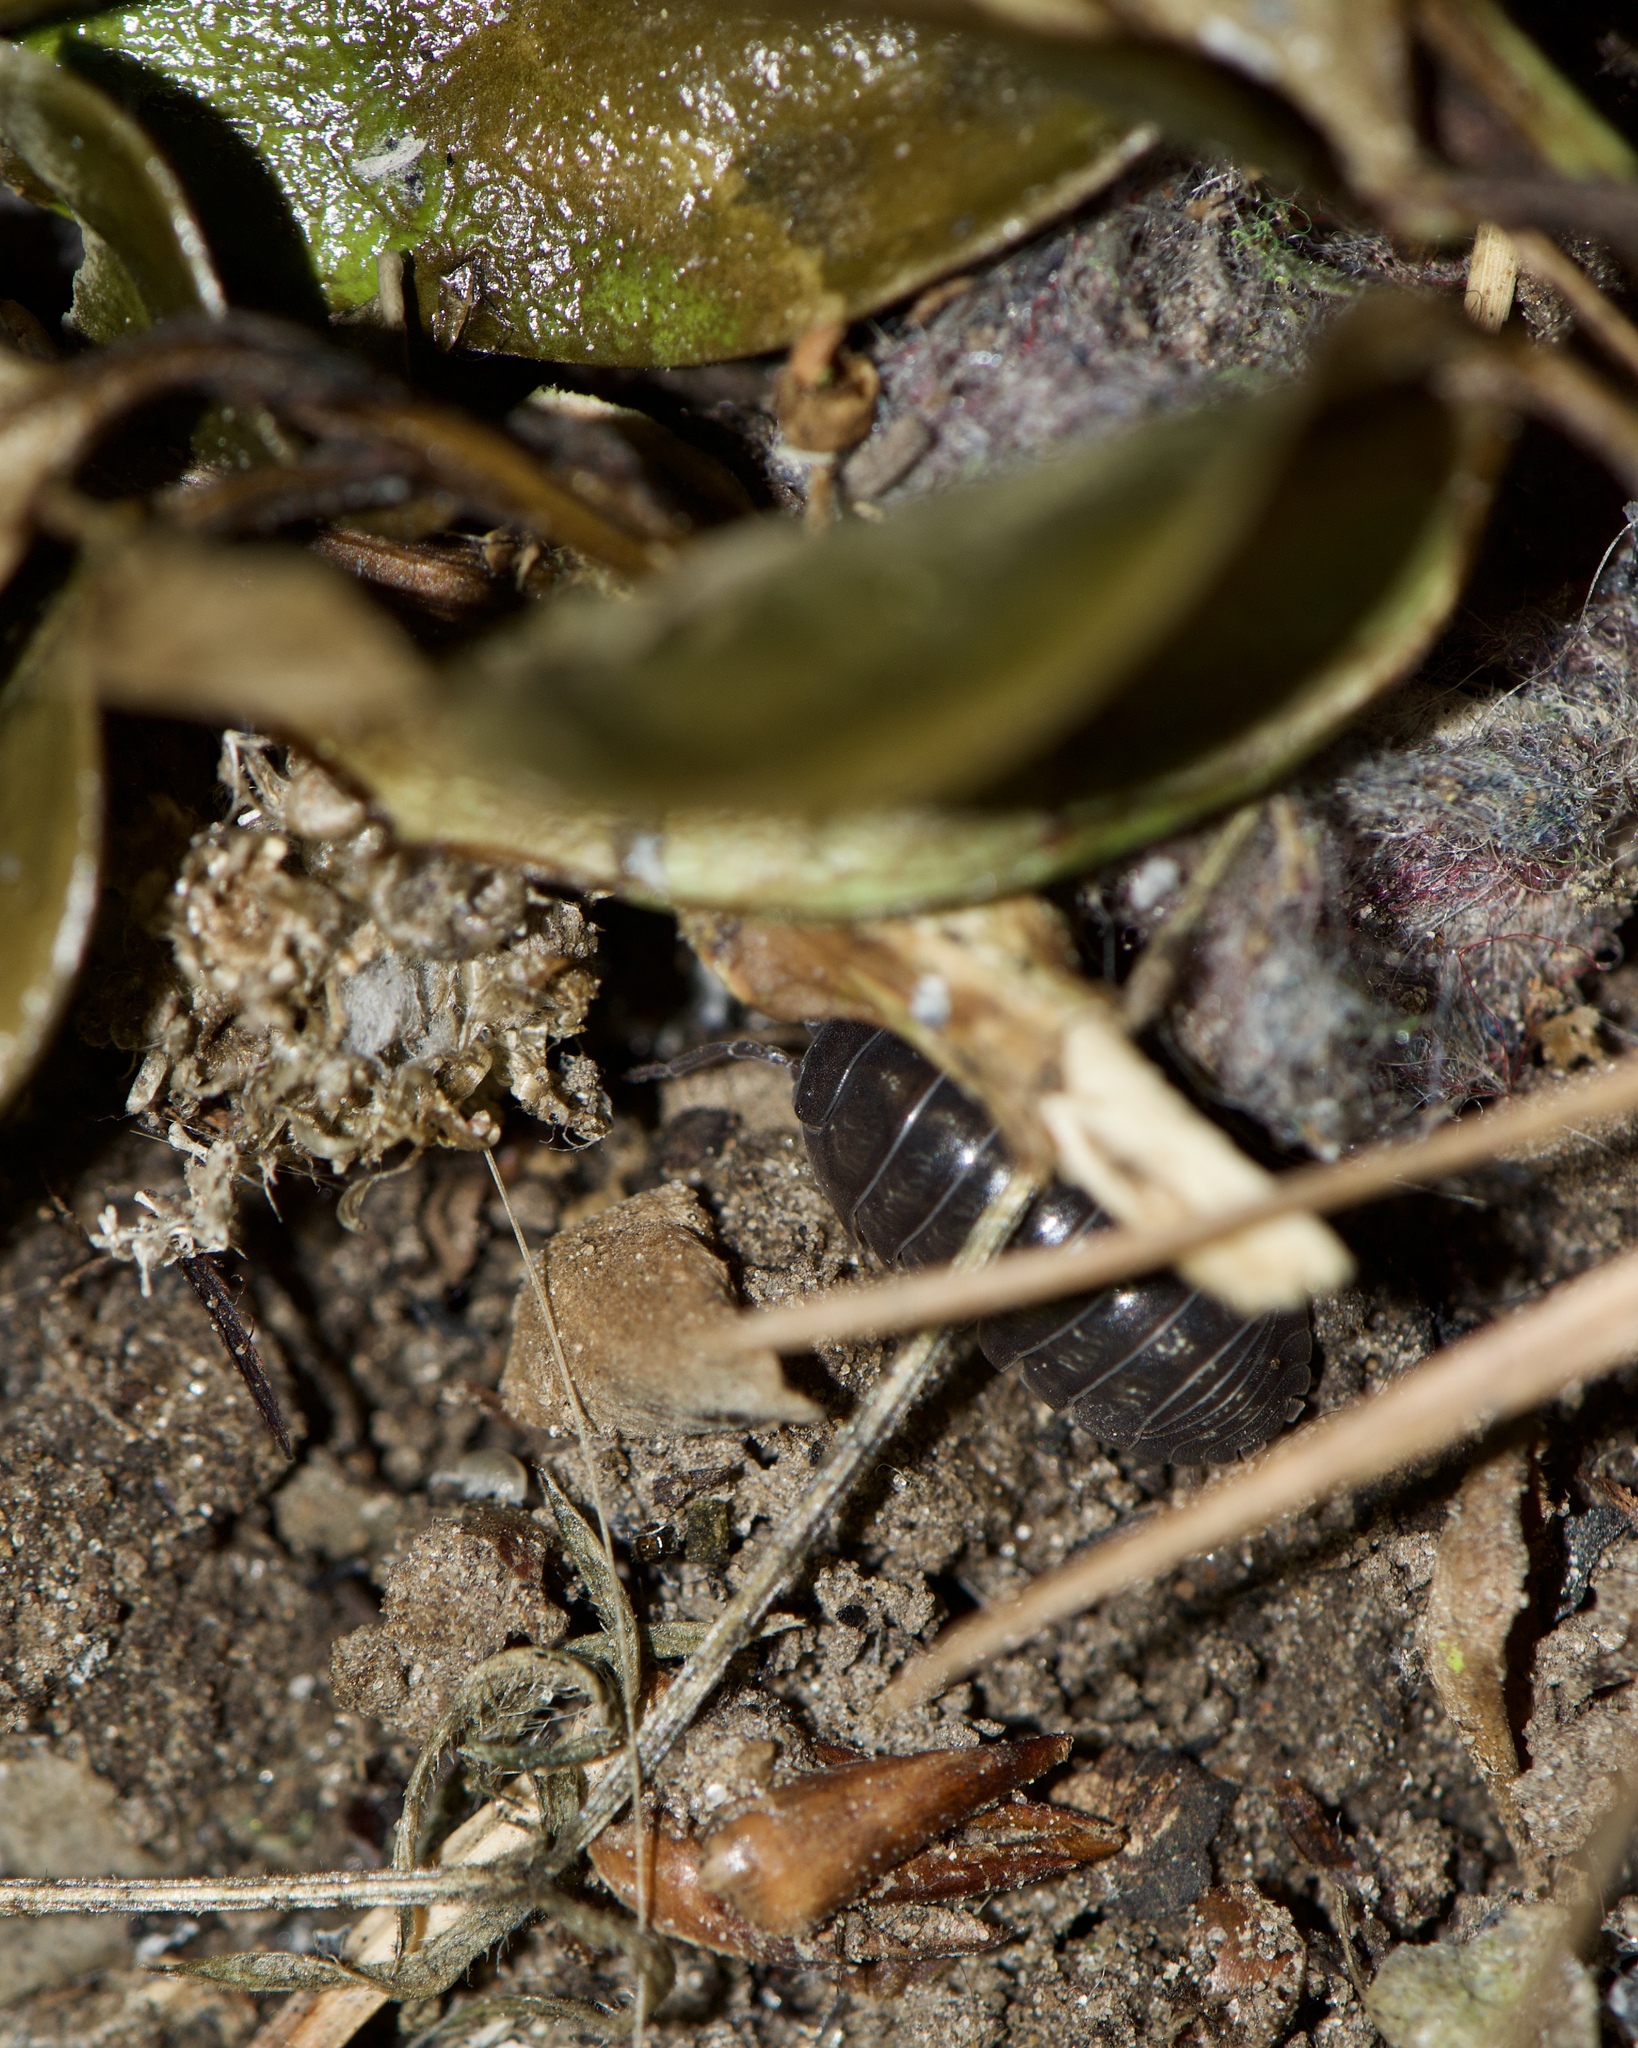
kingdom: Animalia
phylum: Arthropoda
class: Malacostraca
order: Isopoda
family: Armadillidiidae
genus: Armadillidium
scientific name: Armadillidium vulgare
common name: Common pill woodlouse
